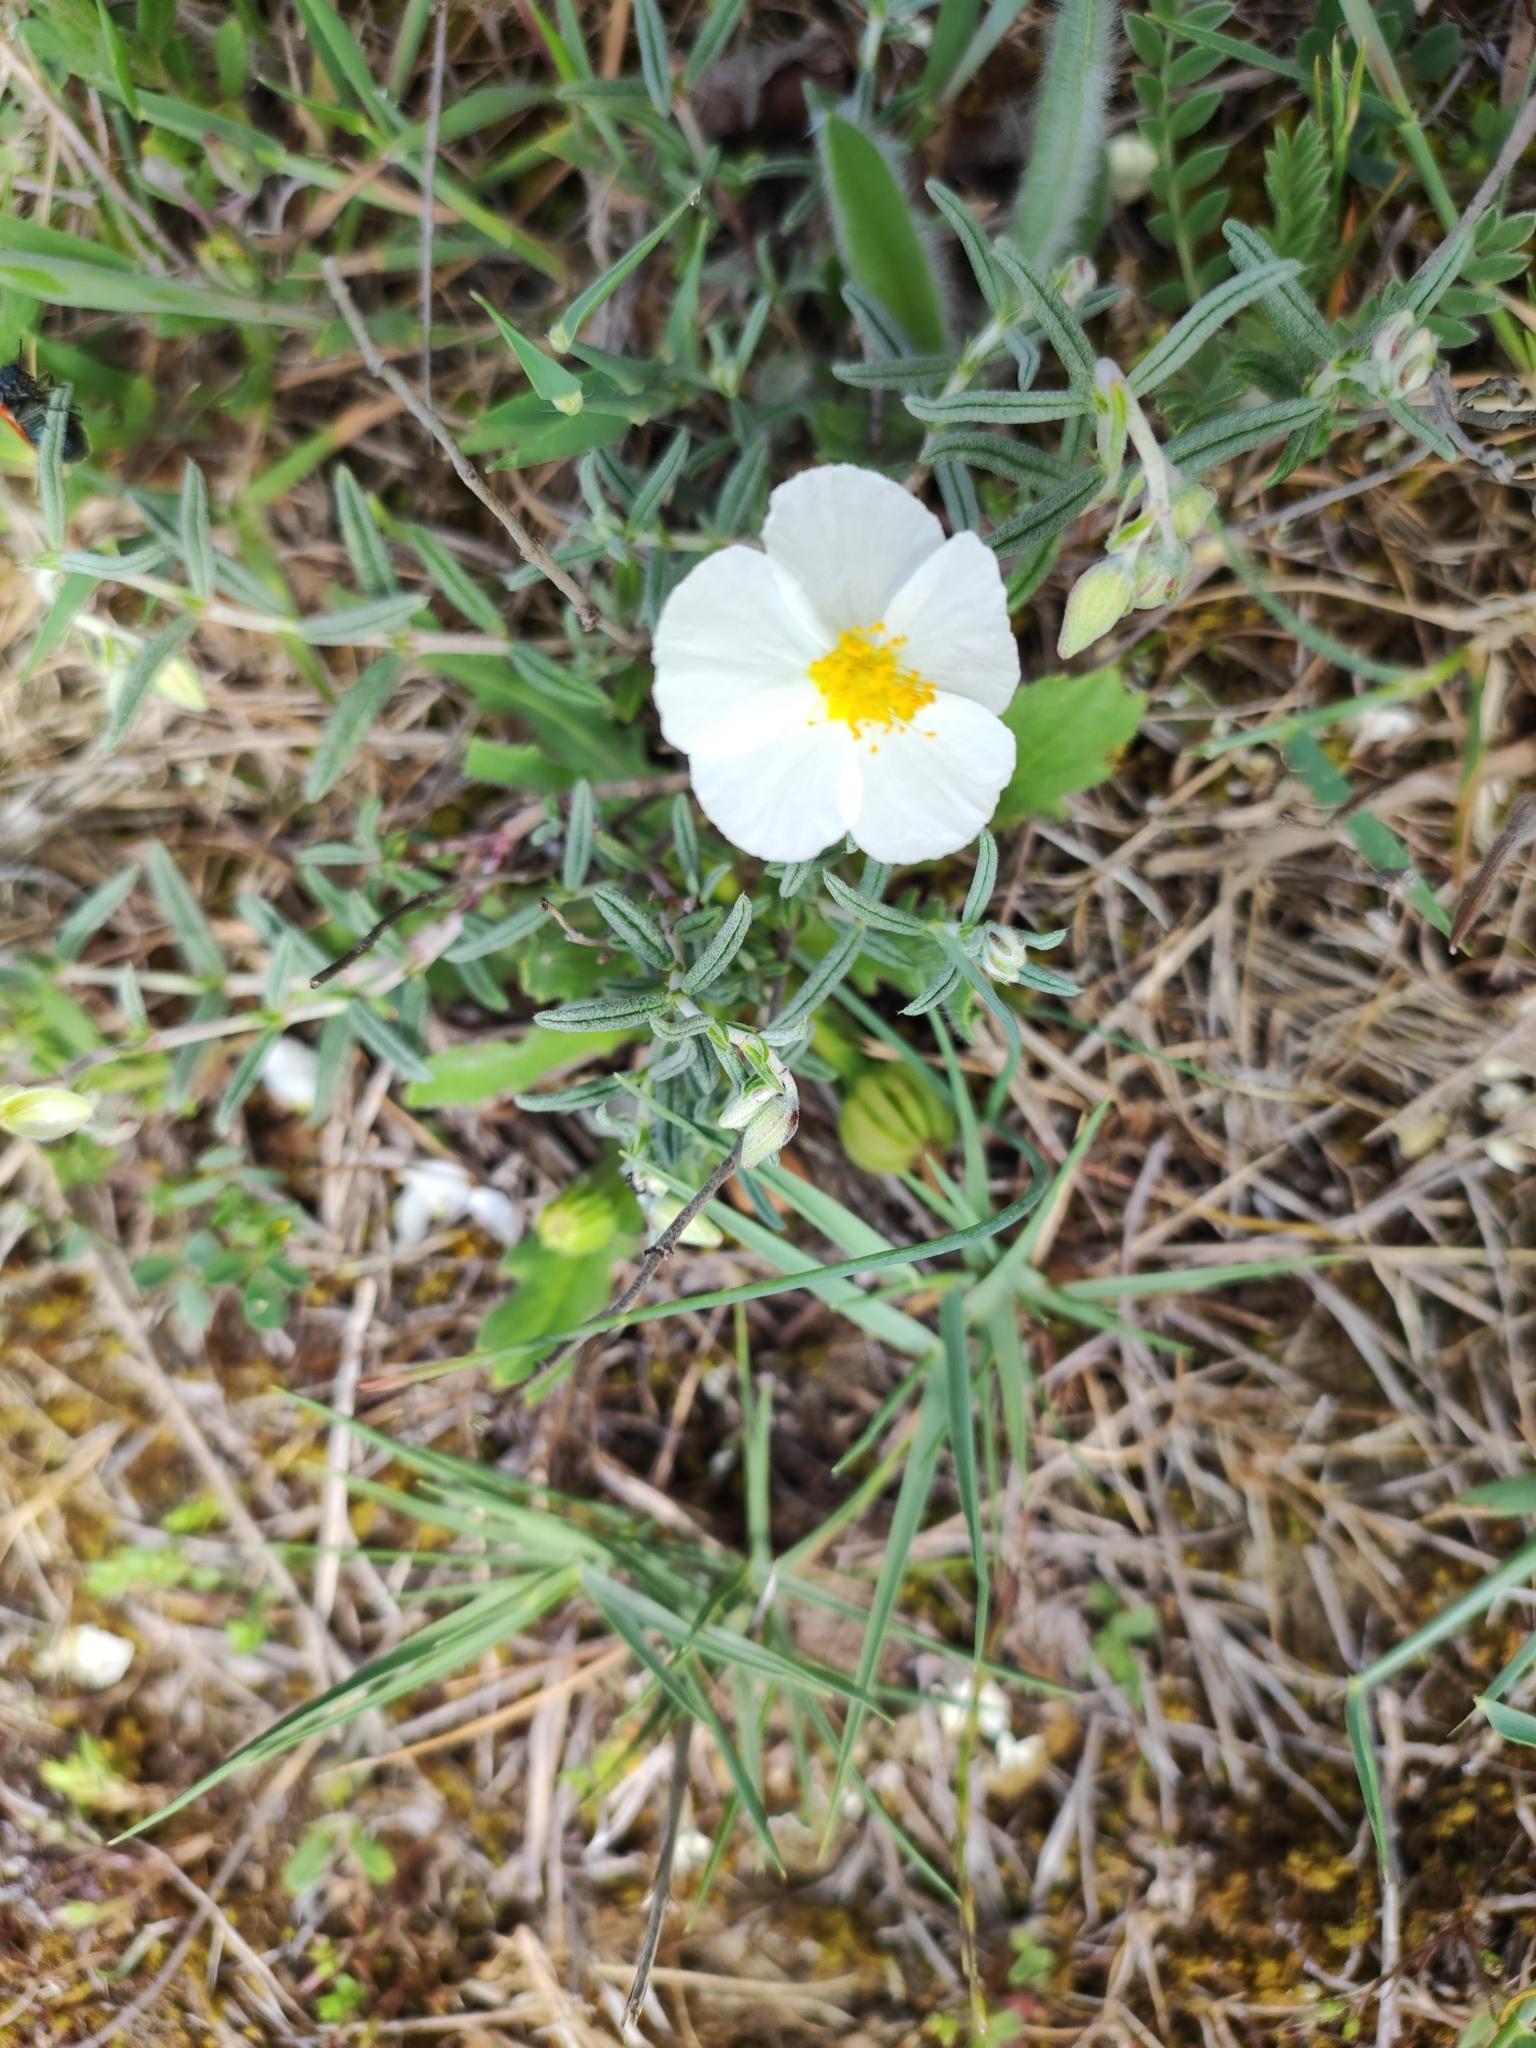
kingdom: Plantae
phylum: Tracheophyta
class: Magnoliopsida
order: Malvales
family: Cistaceae
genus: Helianthemum
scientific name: Helianthemum apenninum
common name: White rock-rose
